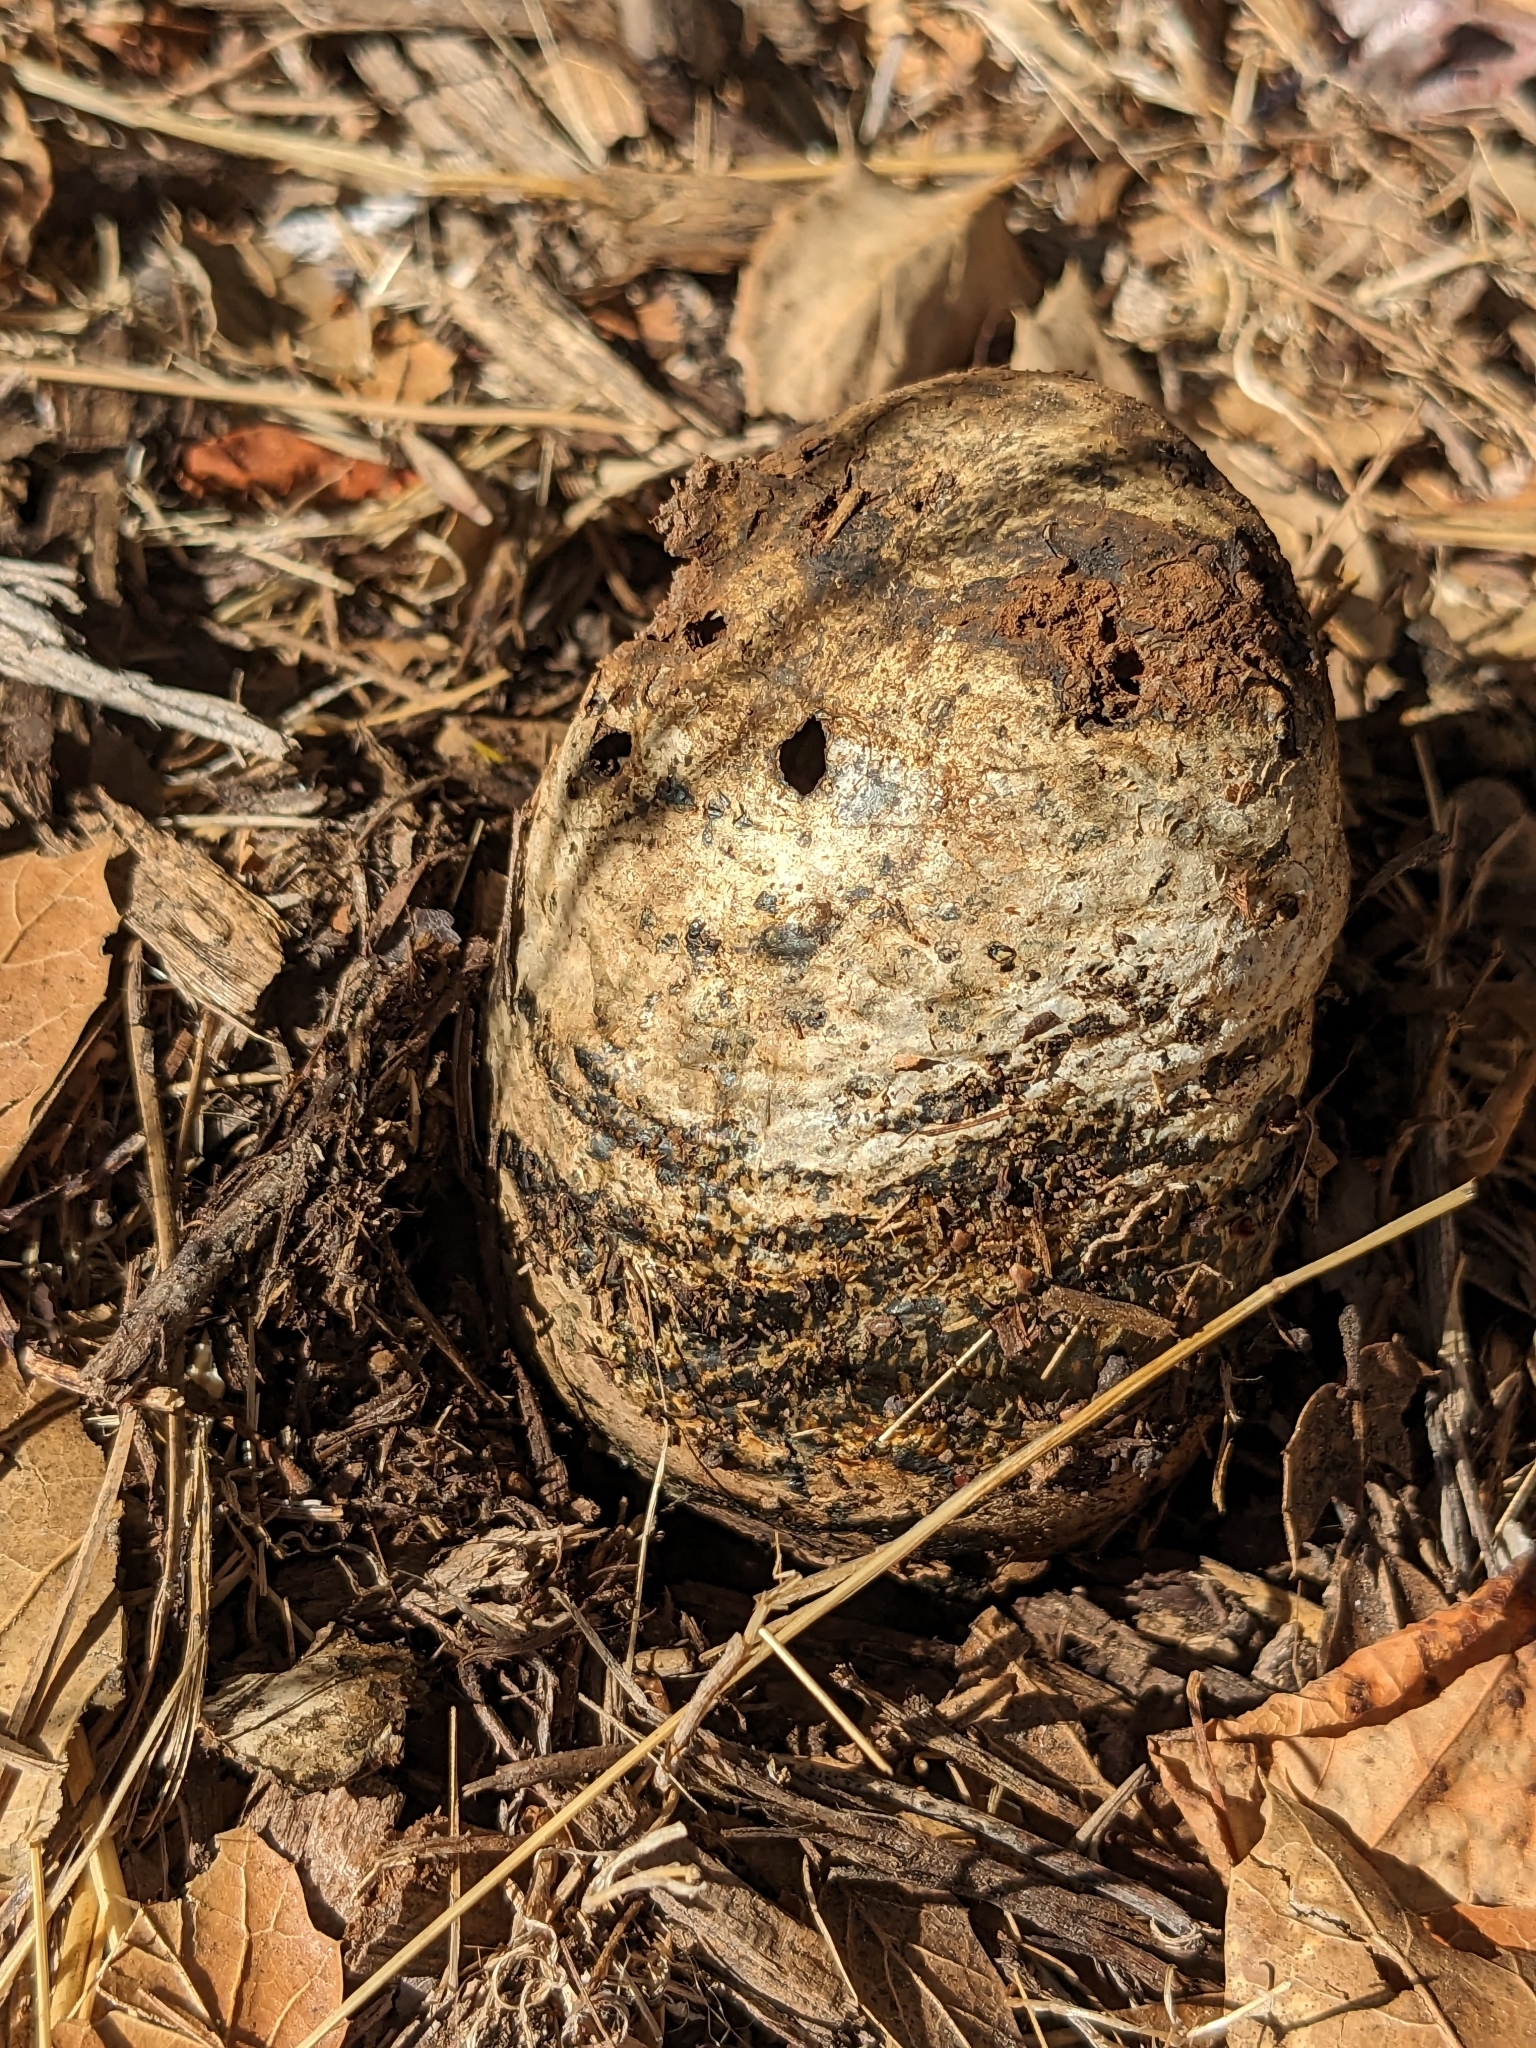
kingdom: Fungi
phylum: Basidiomycota
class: Agaricomycetes
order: Boletales
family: Sclerodermataceae
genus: Pisolithus
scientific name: Pisolithus tinctorius
